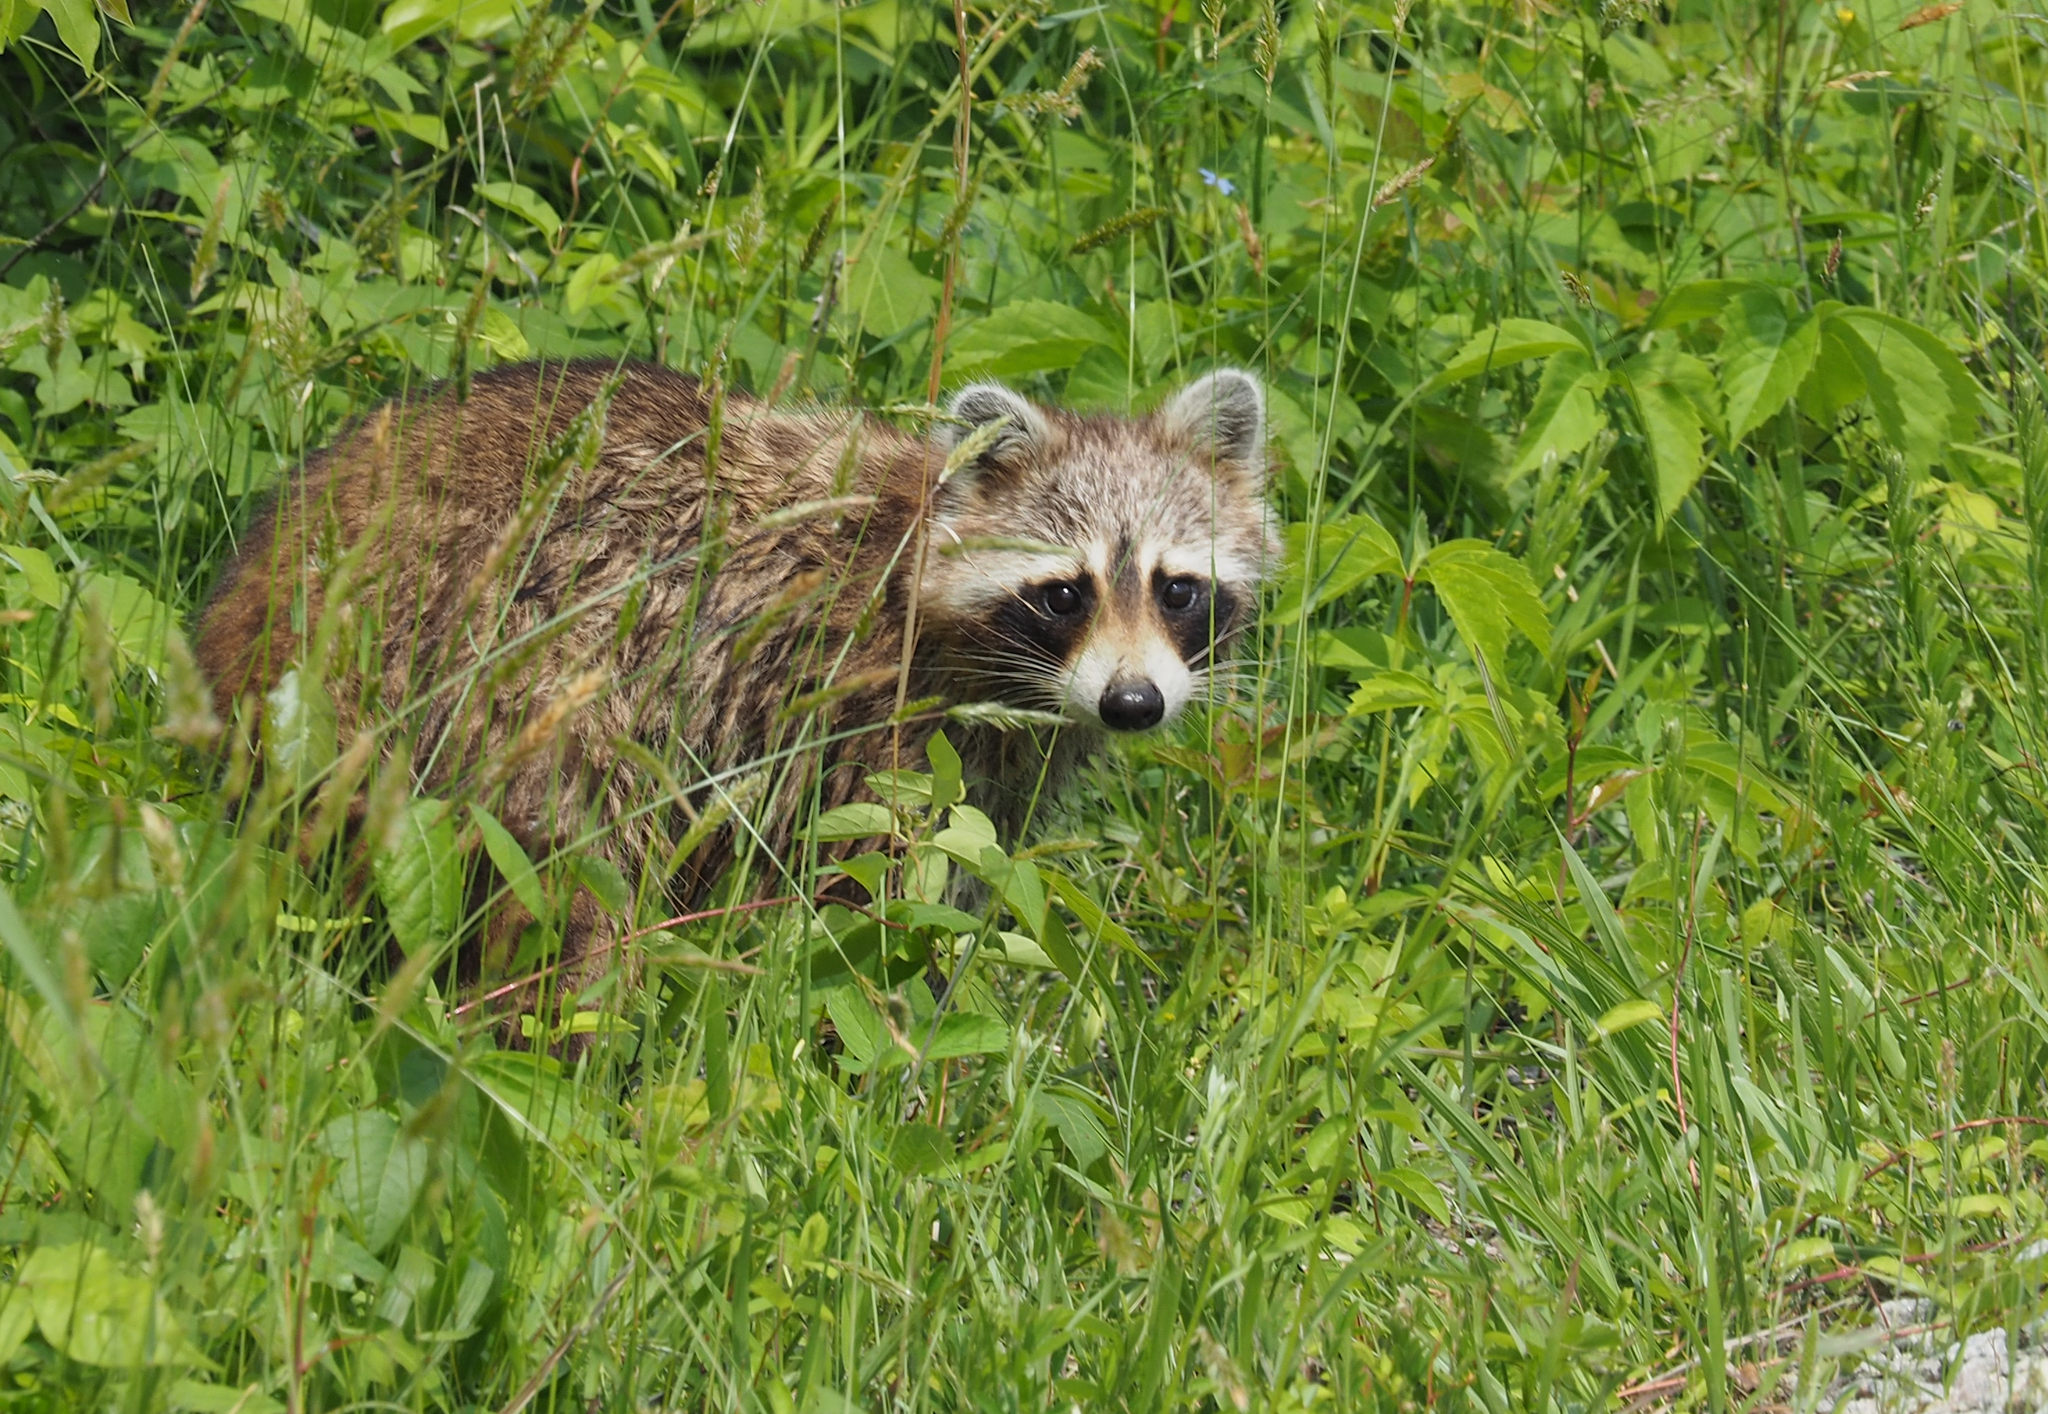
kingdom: Animalia
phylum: Chordata
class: Mammalia
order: Carnivora
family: Procyonidae
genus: Procyon
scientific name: Procyon lotor
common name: Raccoon
